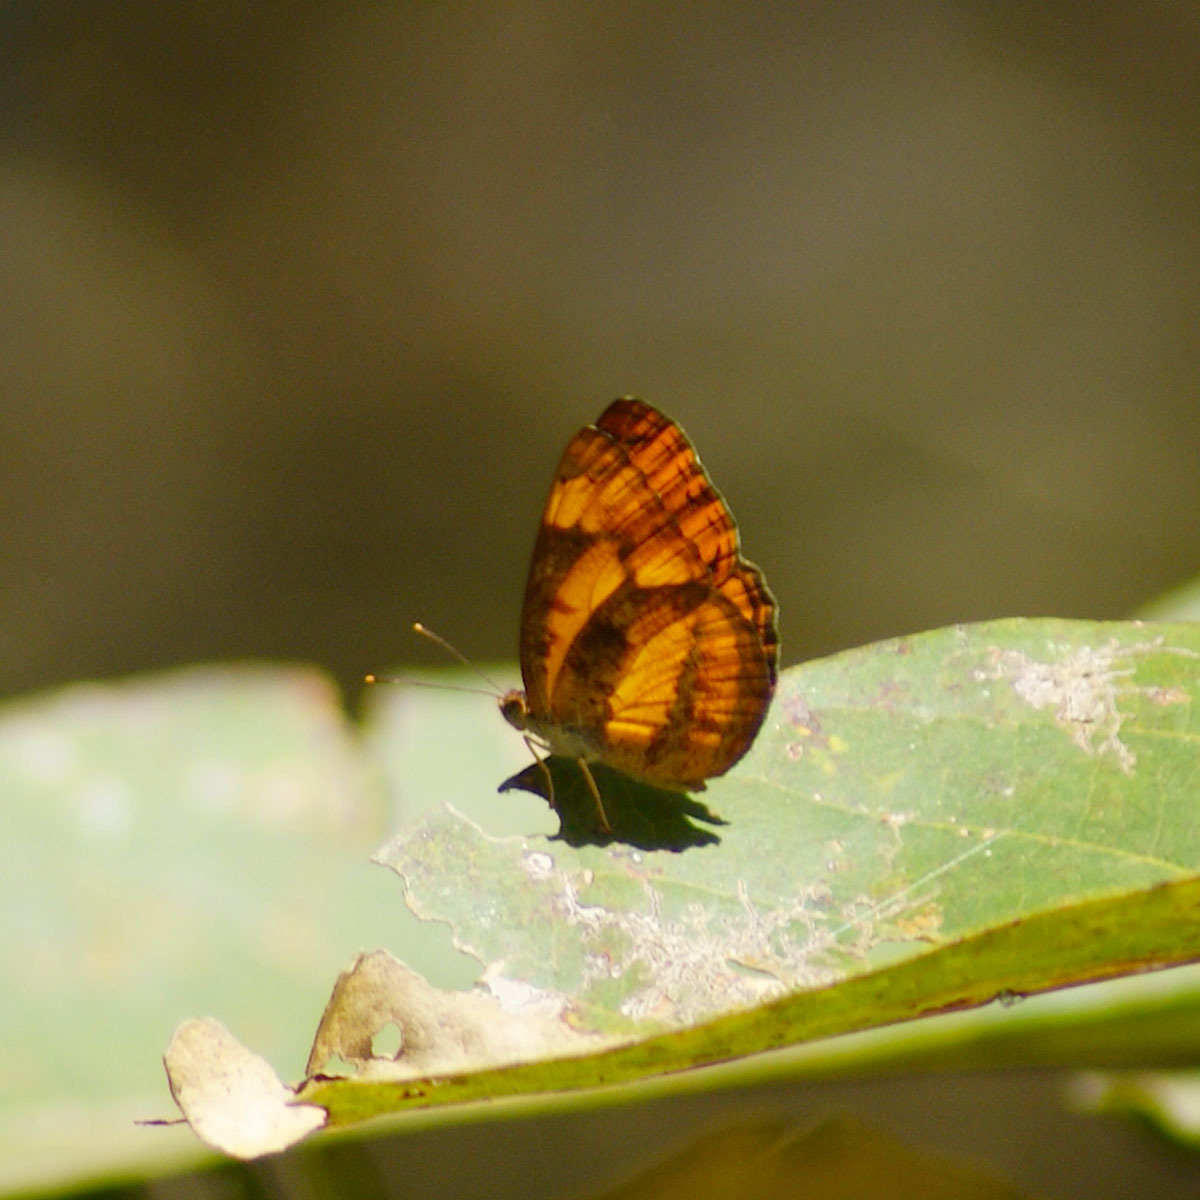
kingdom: Animalia
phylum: Arthropoda
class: Insecta
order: Lepidoptera
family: Nymphalidae
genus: Pantoporia
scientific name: Pantoporia hordonia
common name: Common lascar
